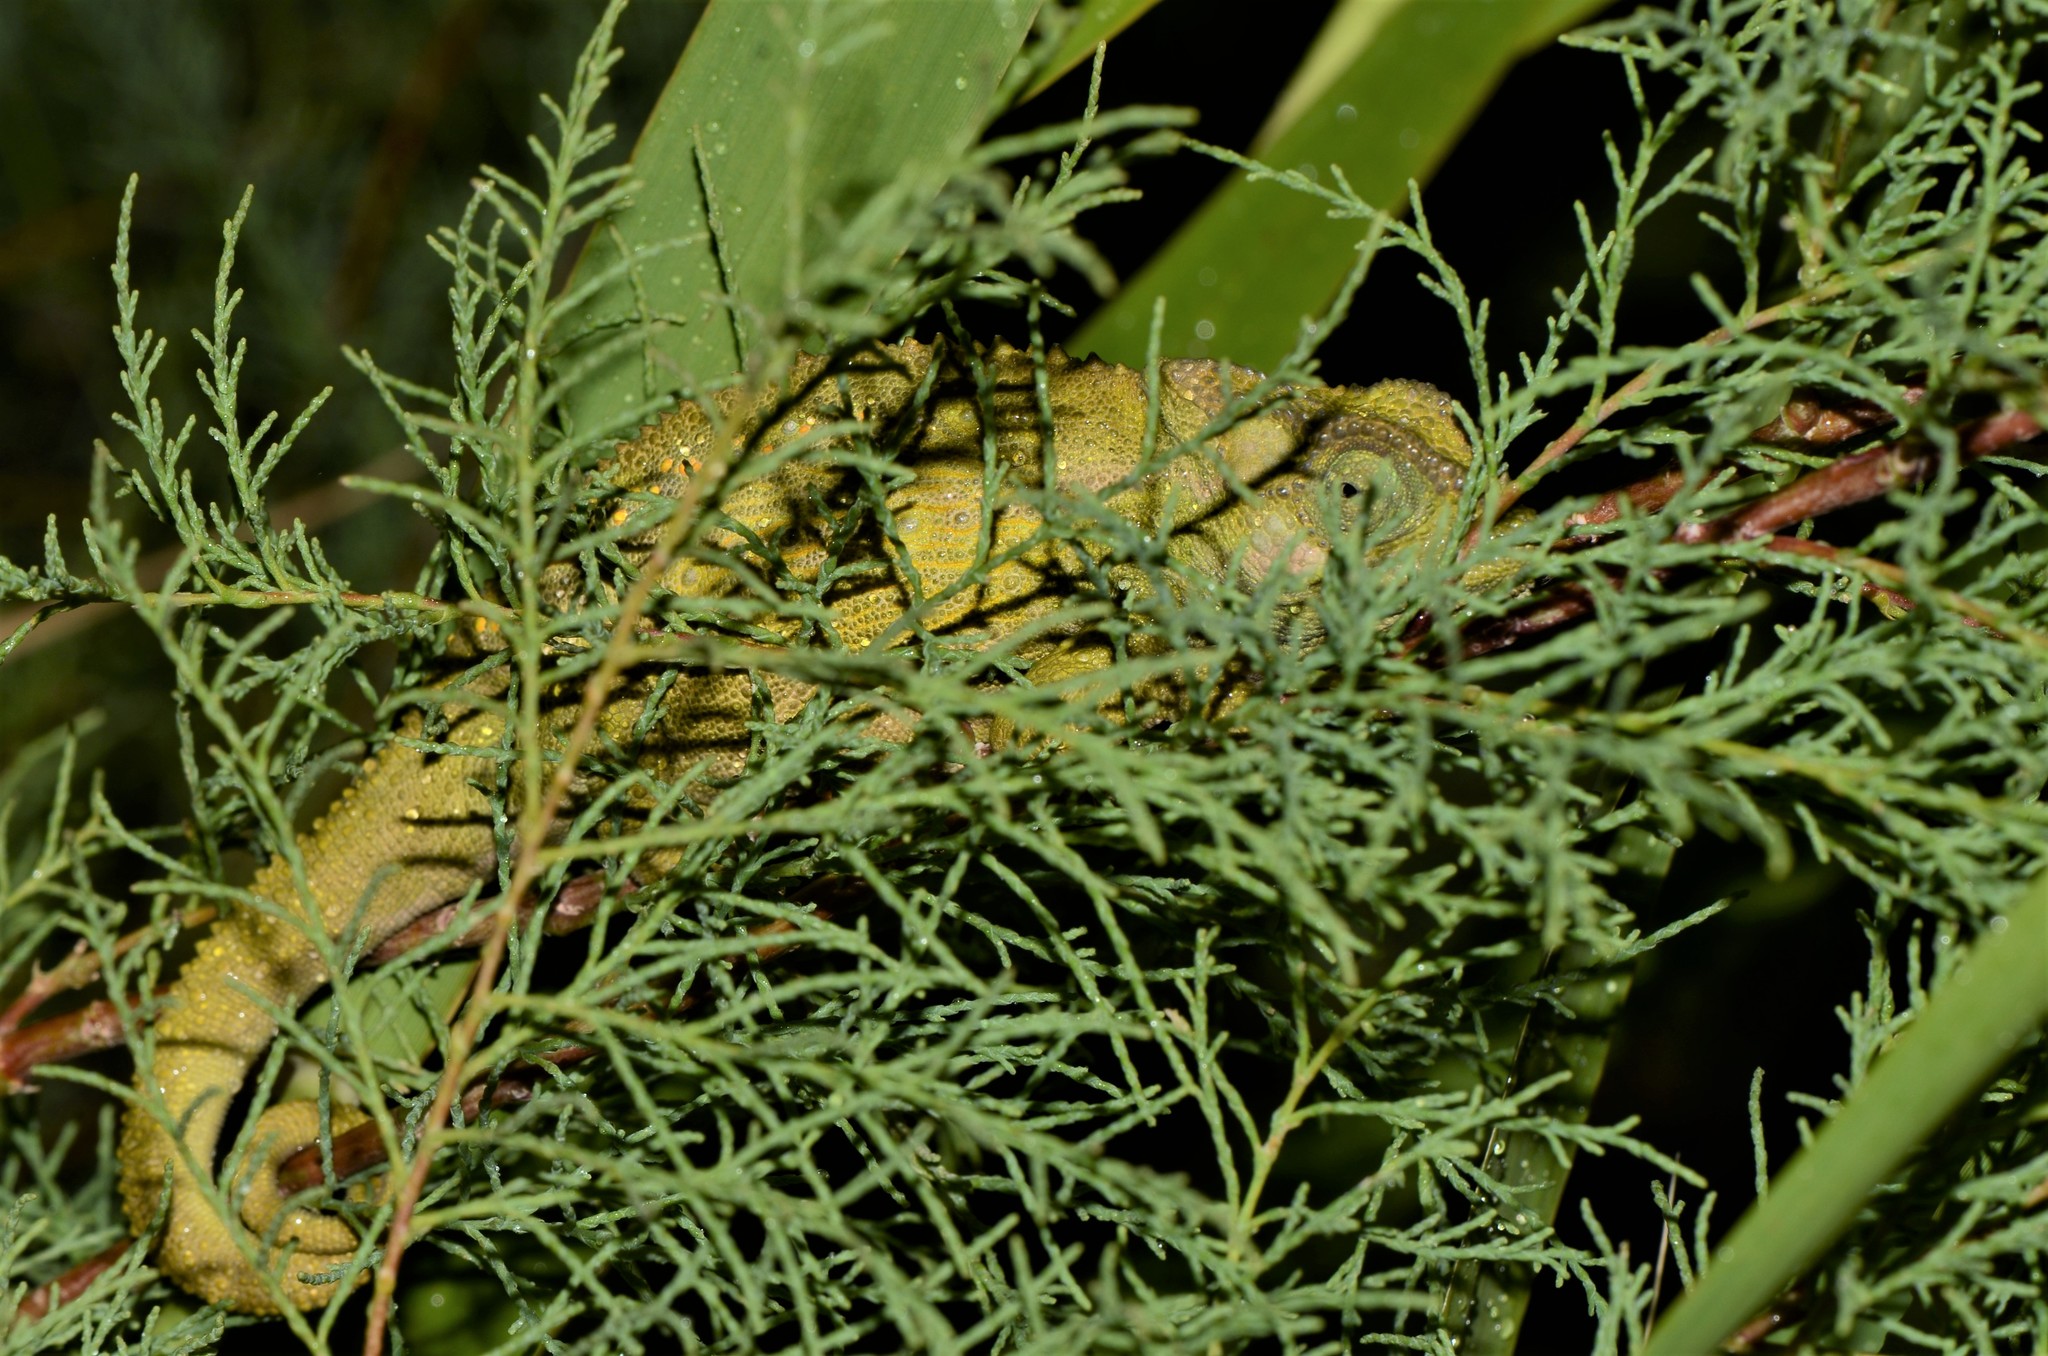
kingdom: Animalia
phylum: Chordata
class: Squamata
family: Chamaeleonidae
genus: Bradypodion
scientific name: Bradypodion pumilum
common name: Cape dwarf chameleon
